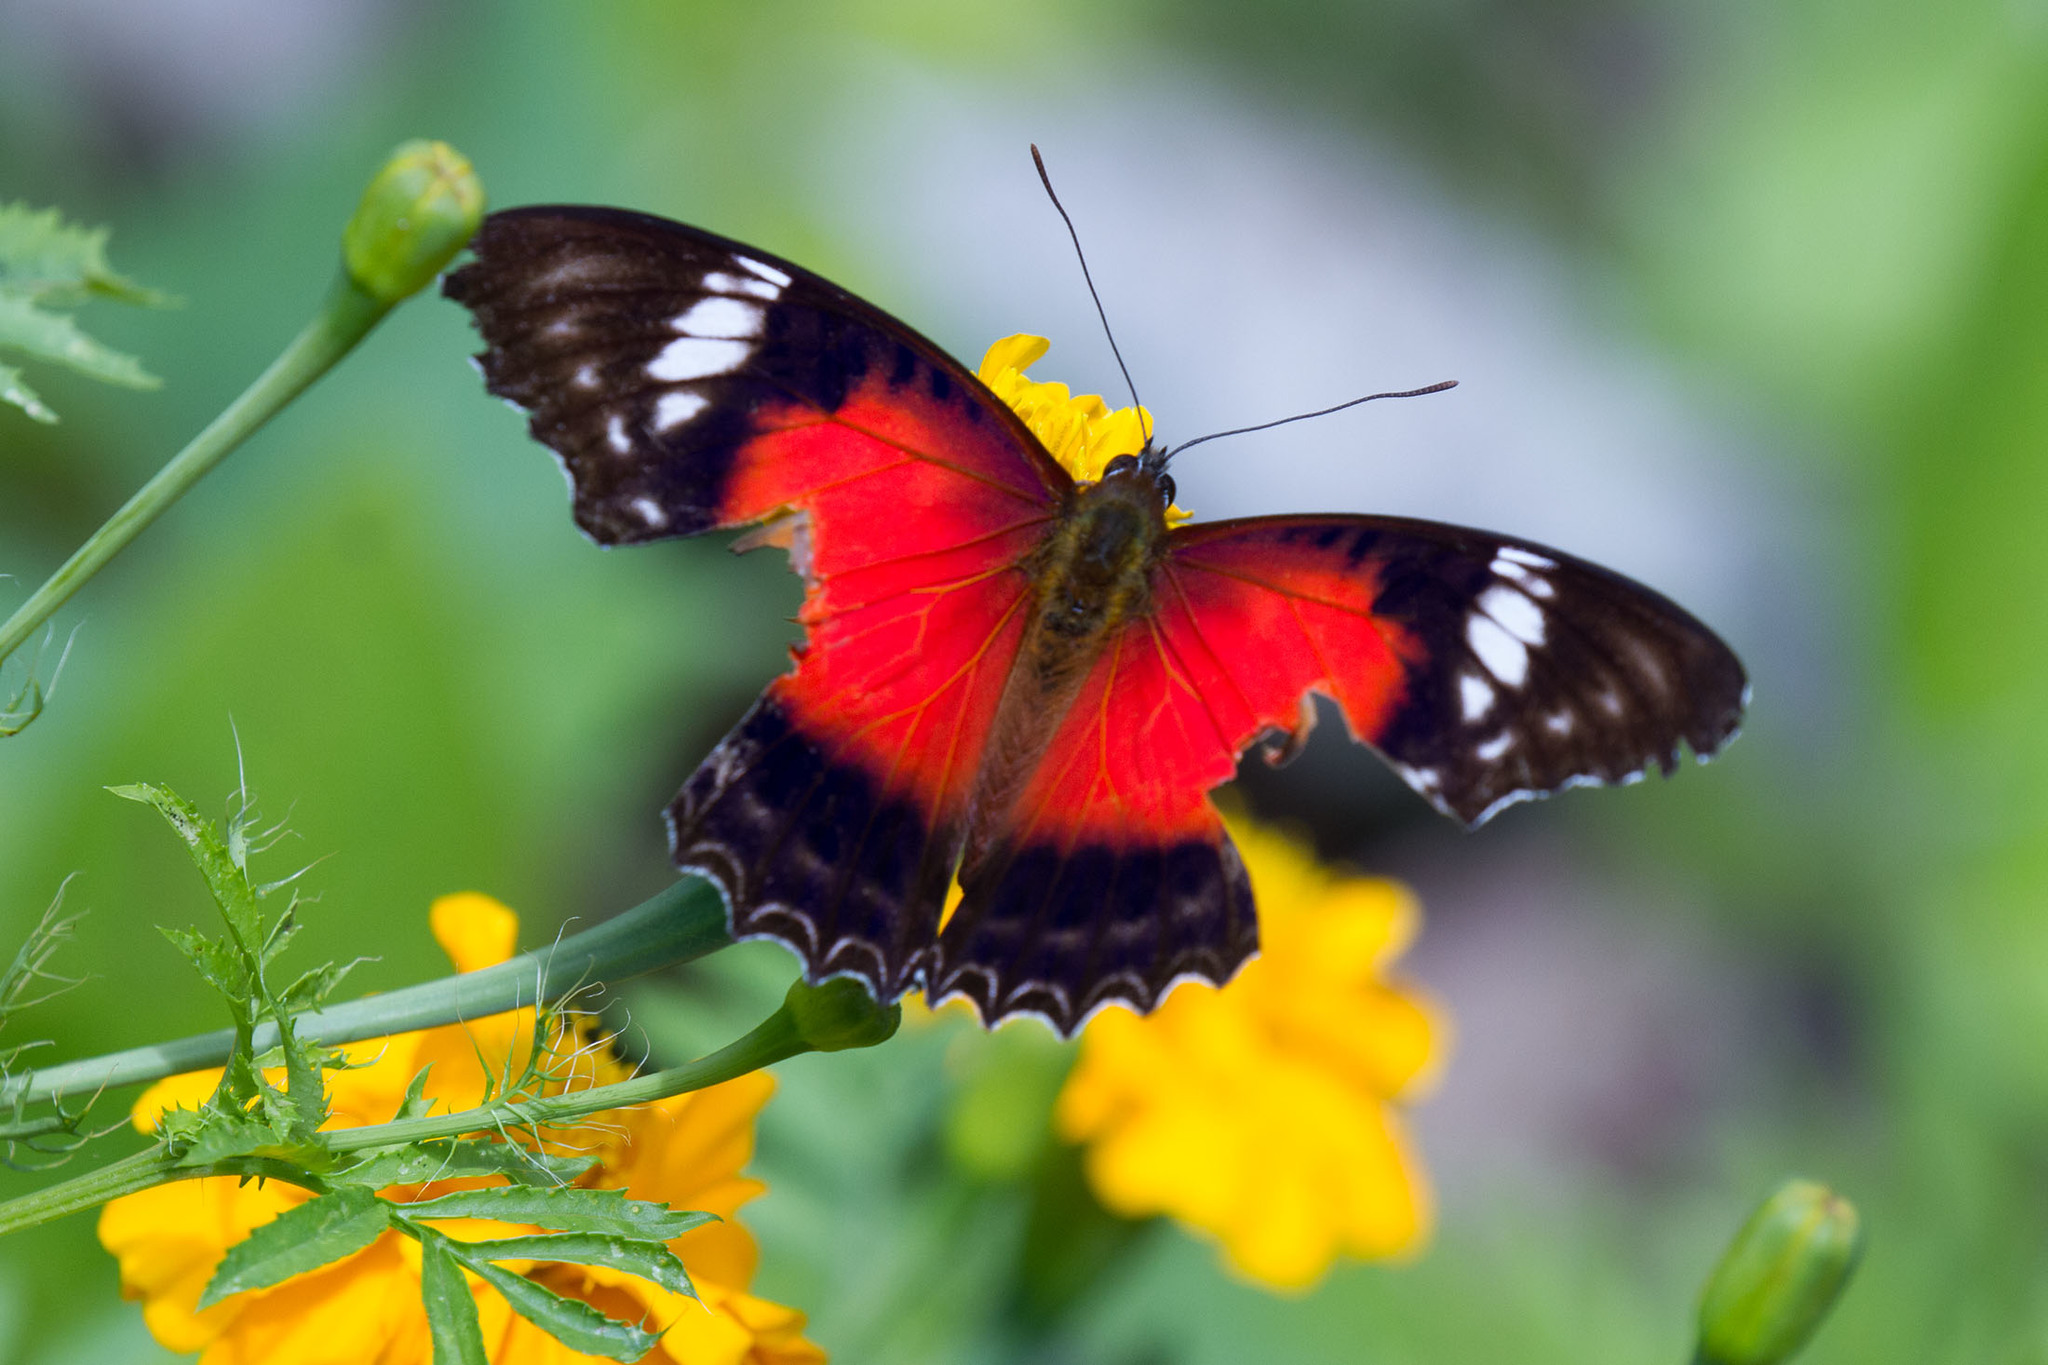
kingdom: Animalia
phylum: Arthropoda
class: Insecta
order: Lepidoptera
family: Nymphalidae
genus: Cethosia
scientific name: Cethosia cydippe
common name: Eastern red lacewing butterfly
